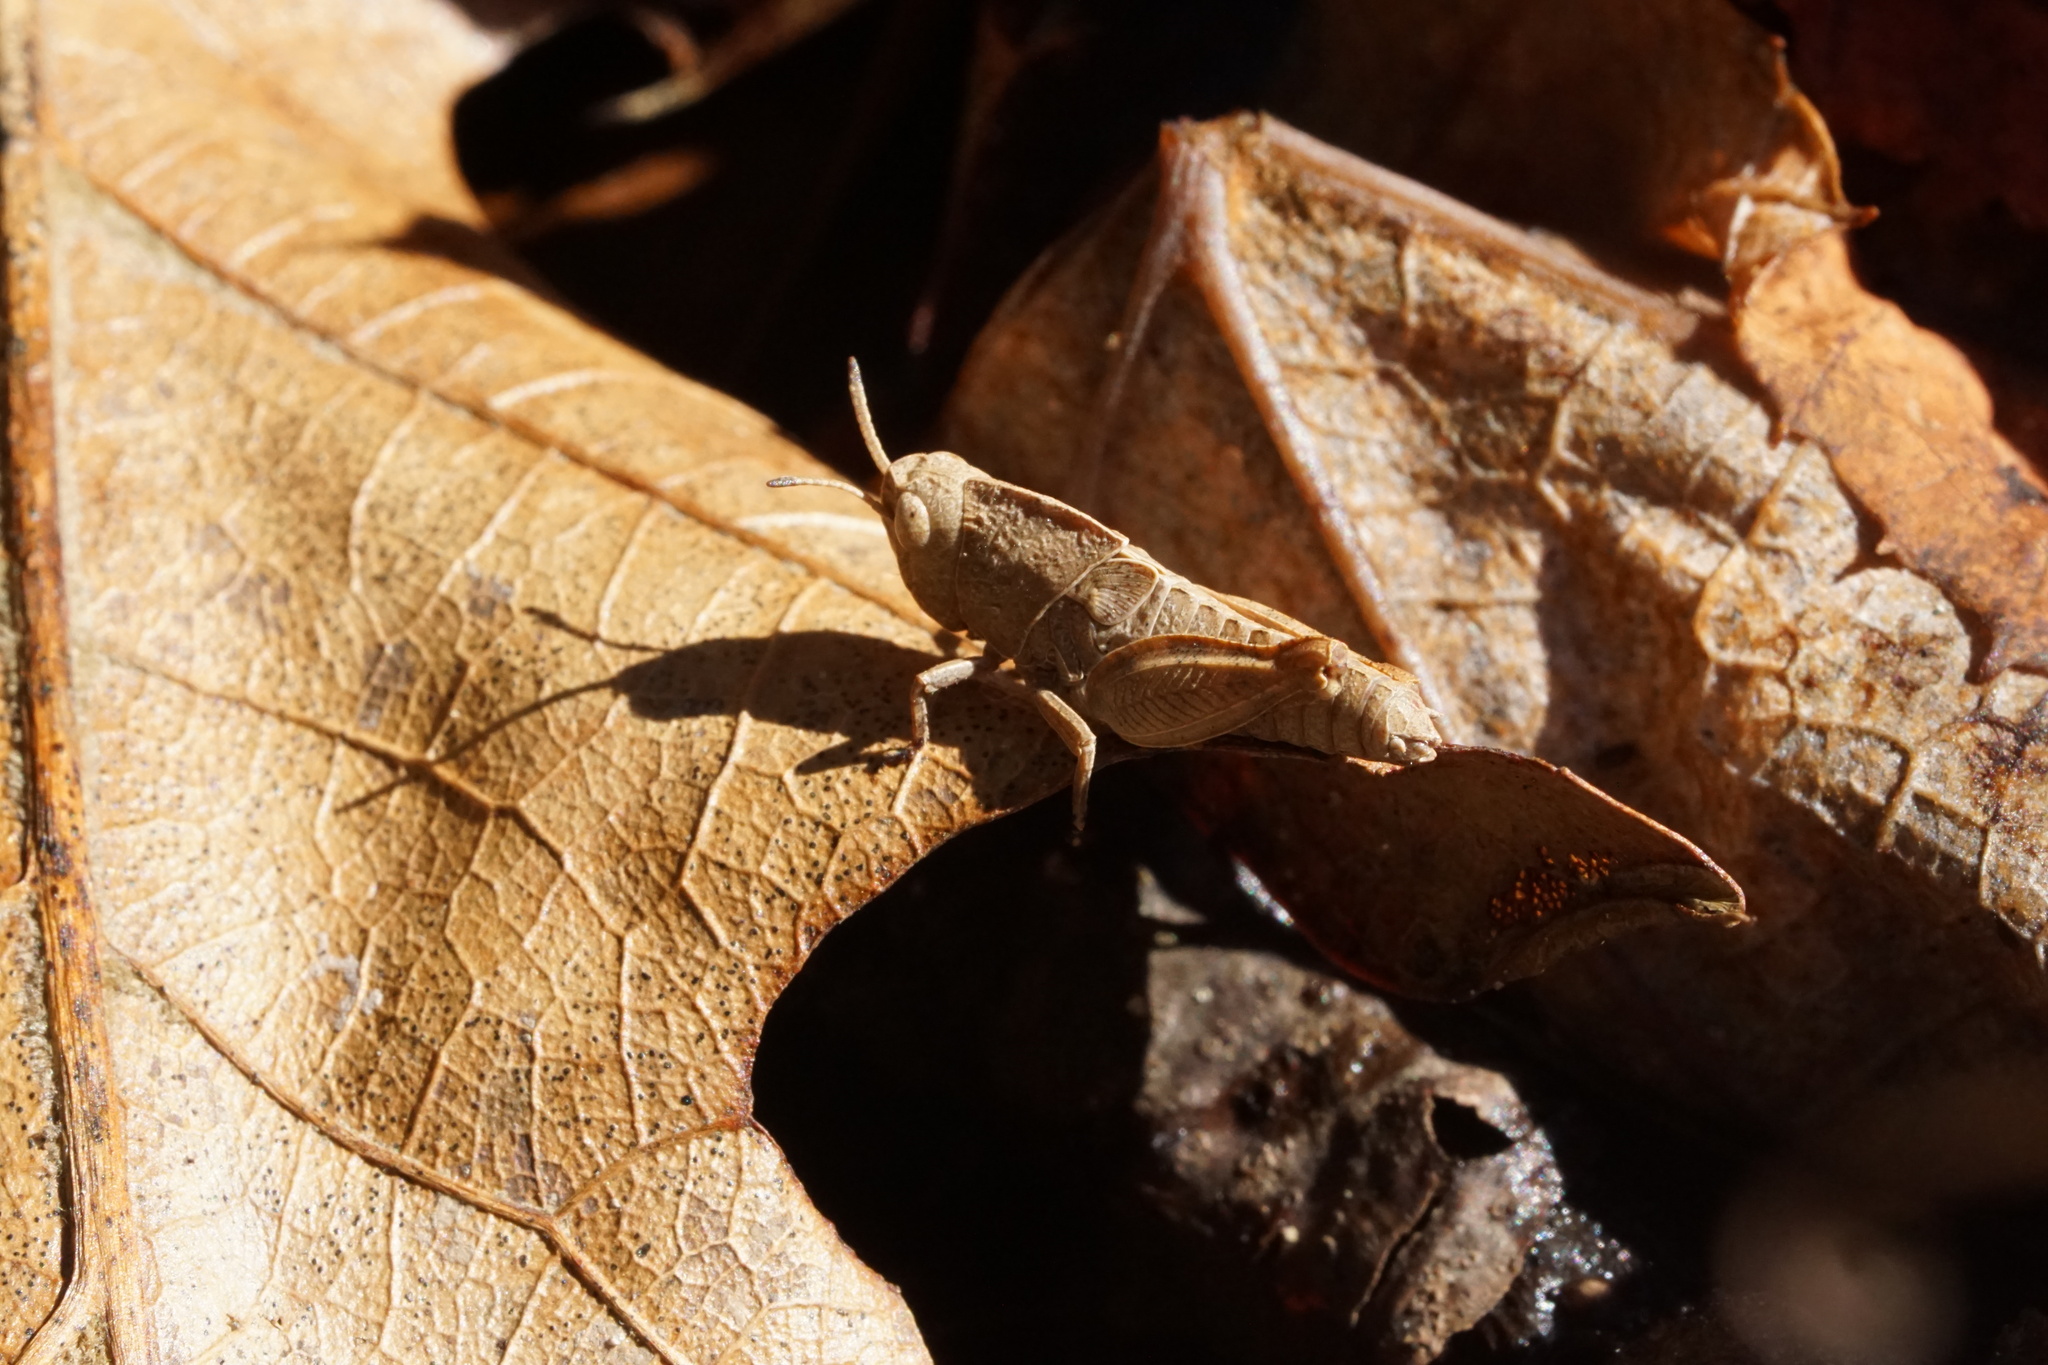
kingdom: Animalia
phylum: Arthropoda
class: Insecta
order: Orthoptera
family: Acrididae
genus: Arphia
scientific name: Arphia sulphurea
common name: Spring yellow-winged locust
